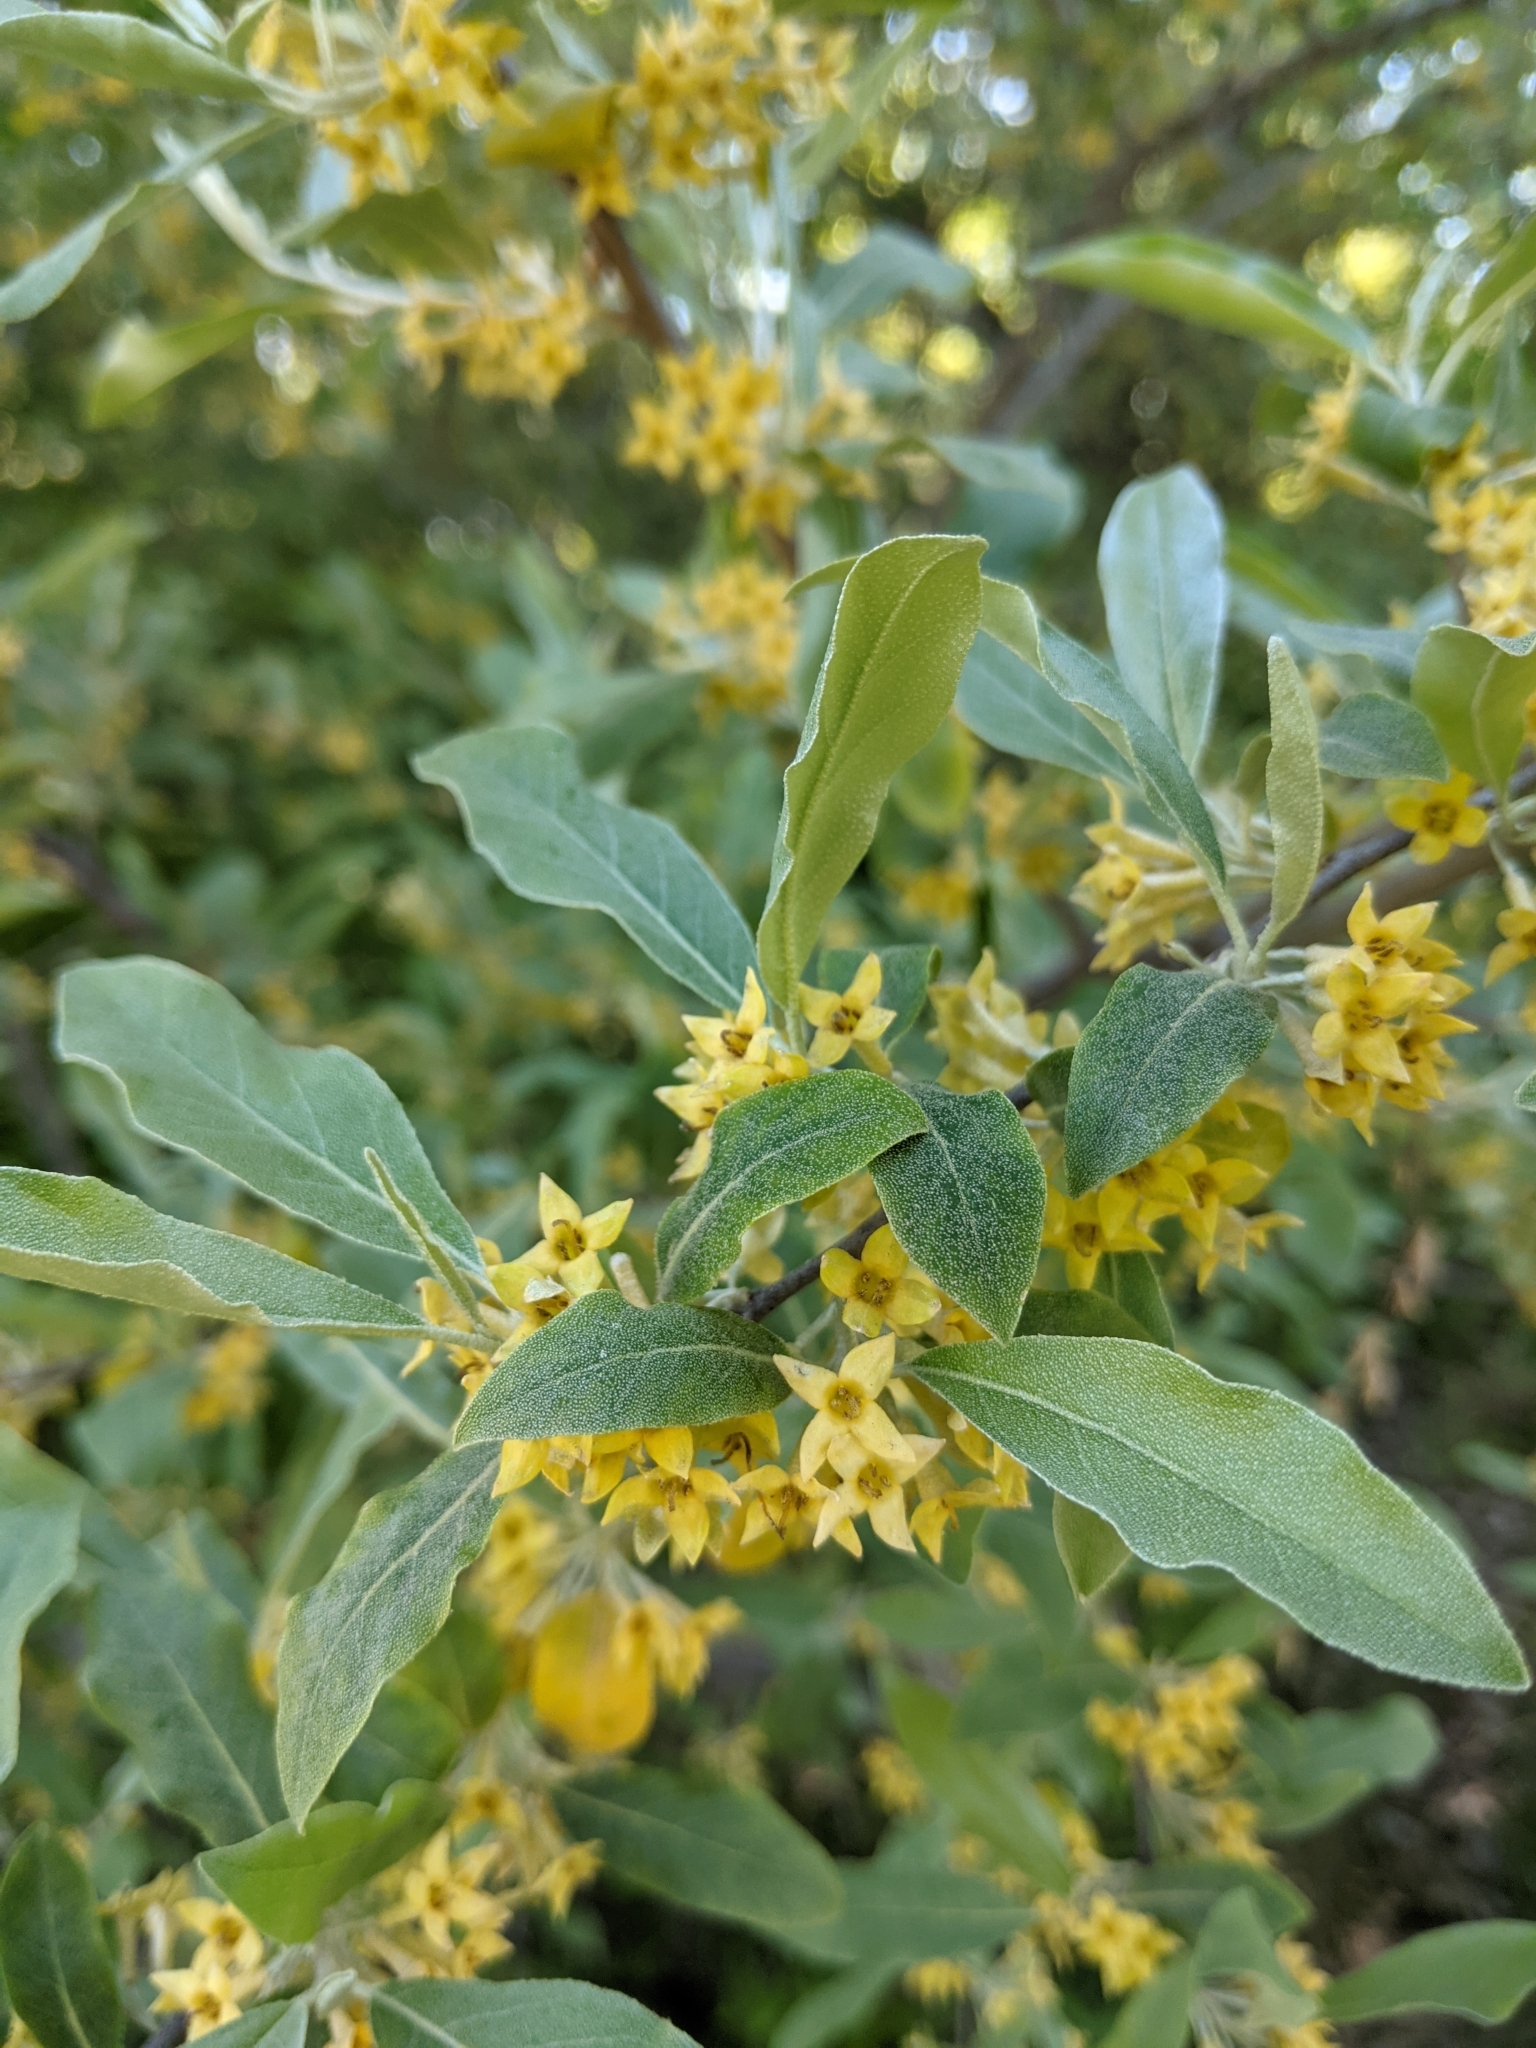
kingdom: Plantae
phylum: Tracheophyta
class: Magnoliopsida
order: Rosales
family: Elaeagnaceae
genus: Elaeagnus
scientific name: Elaeagnus umbellata
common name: Autumn olive
